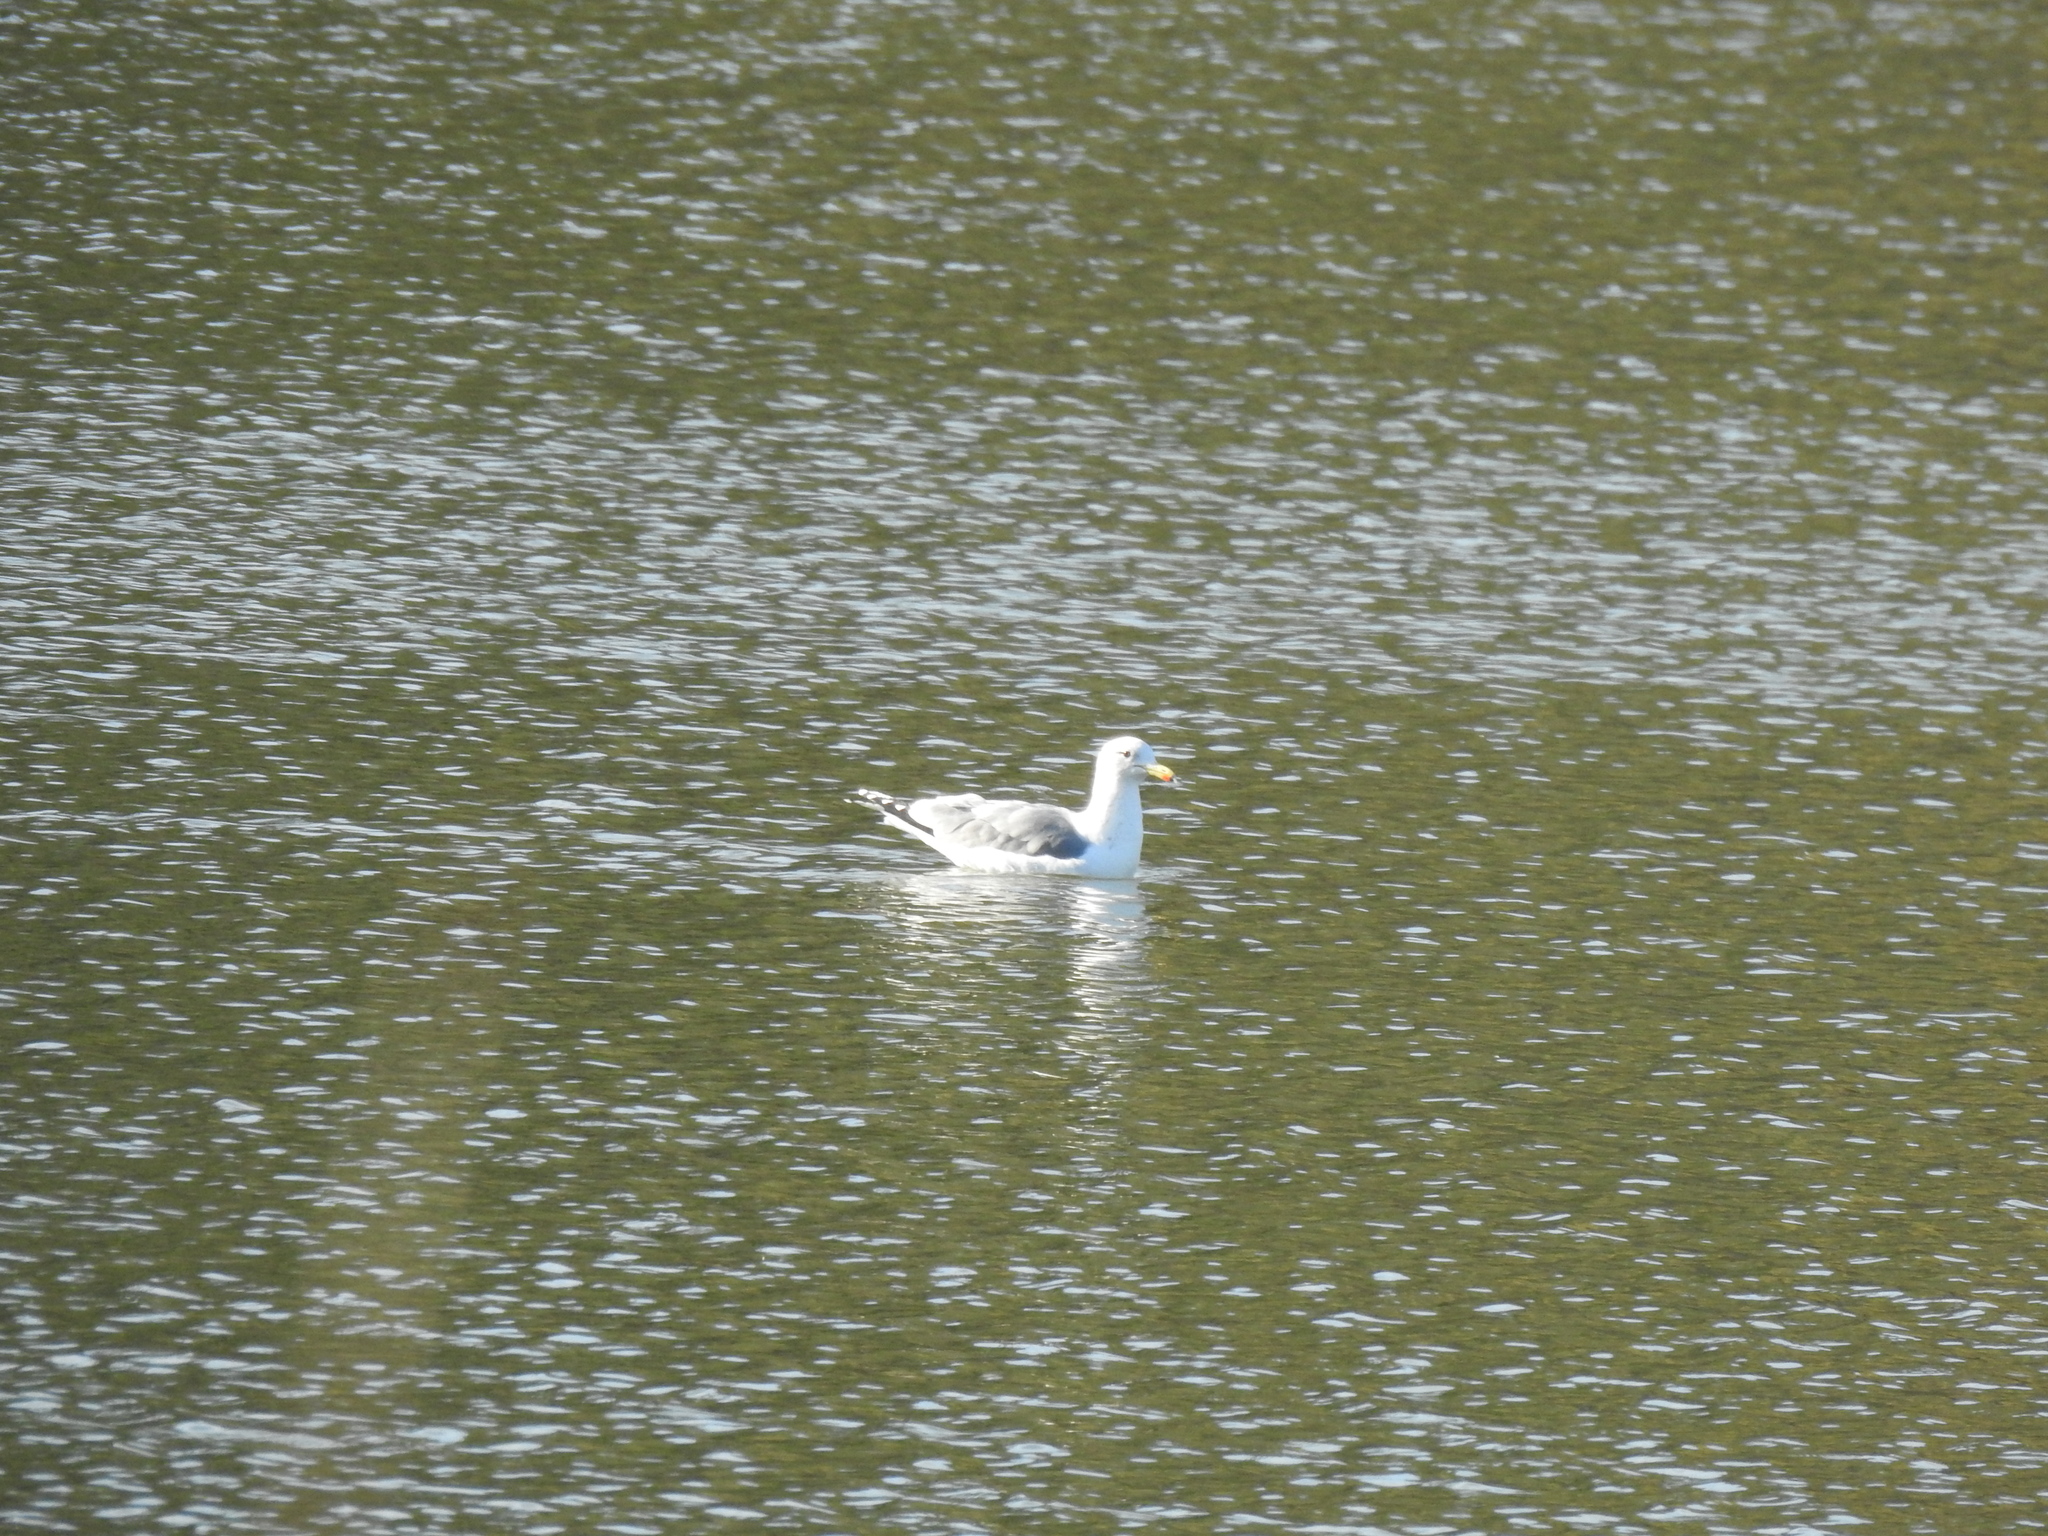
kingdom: Animalia
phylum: Chordata
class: Aves
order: Charadriiformes
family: Laridae
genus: Larus
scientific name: Larus californicus
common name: California gull
